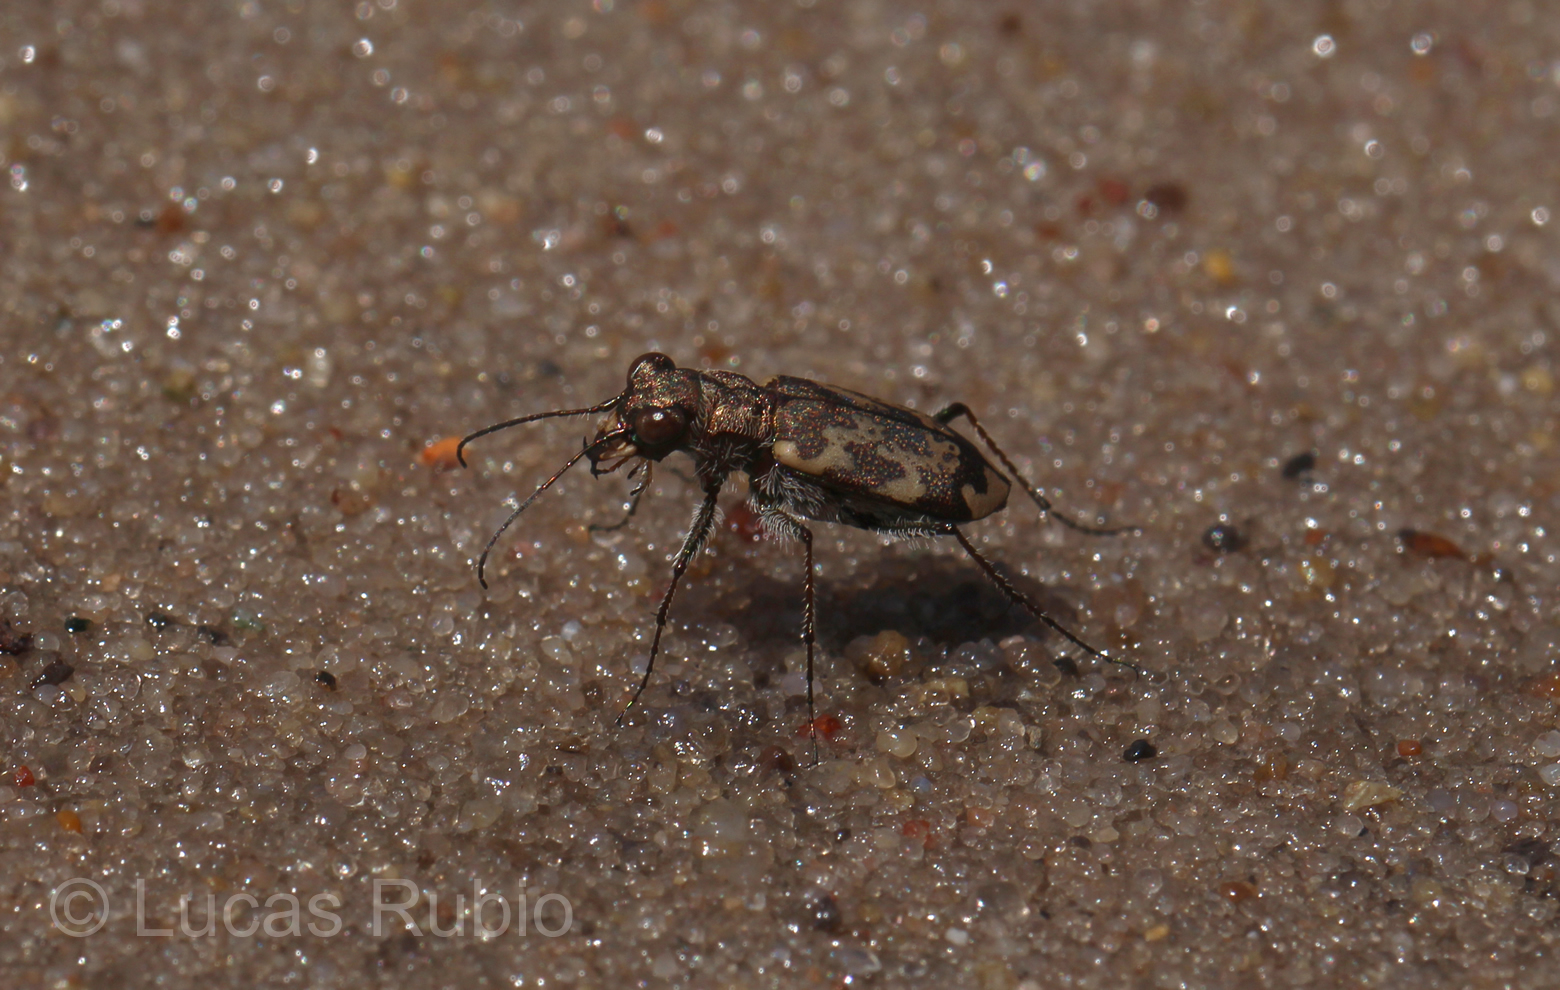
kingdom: Animalia
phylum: Arthropoda
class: Insecta
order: Coleoptera
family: Carabidae
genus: Cylindera
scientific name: Cylindera apiata
